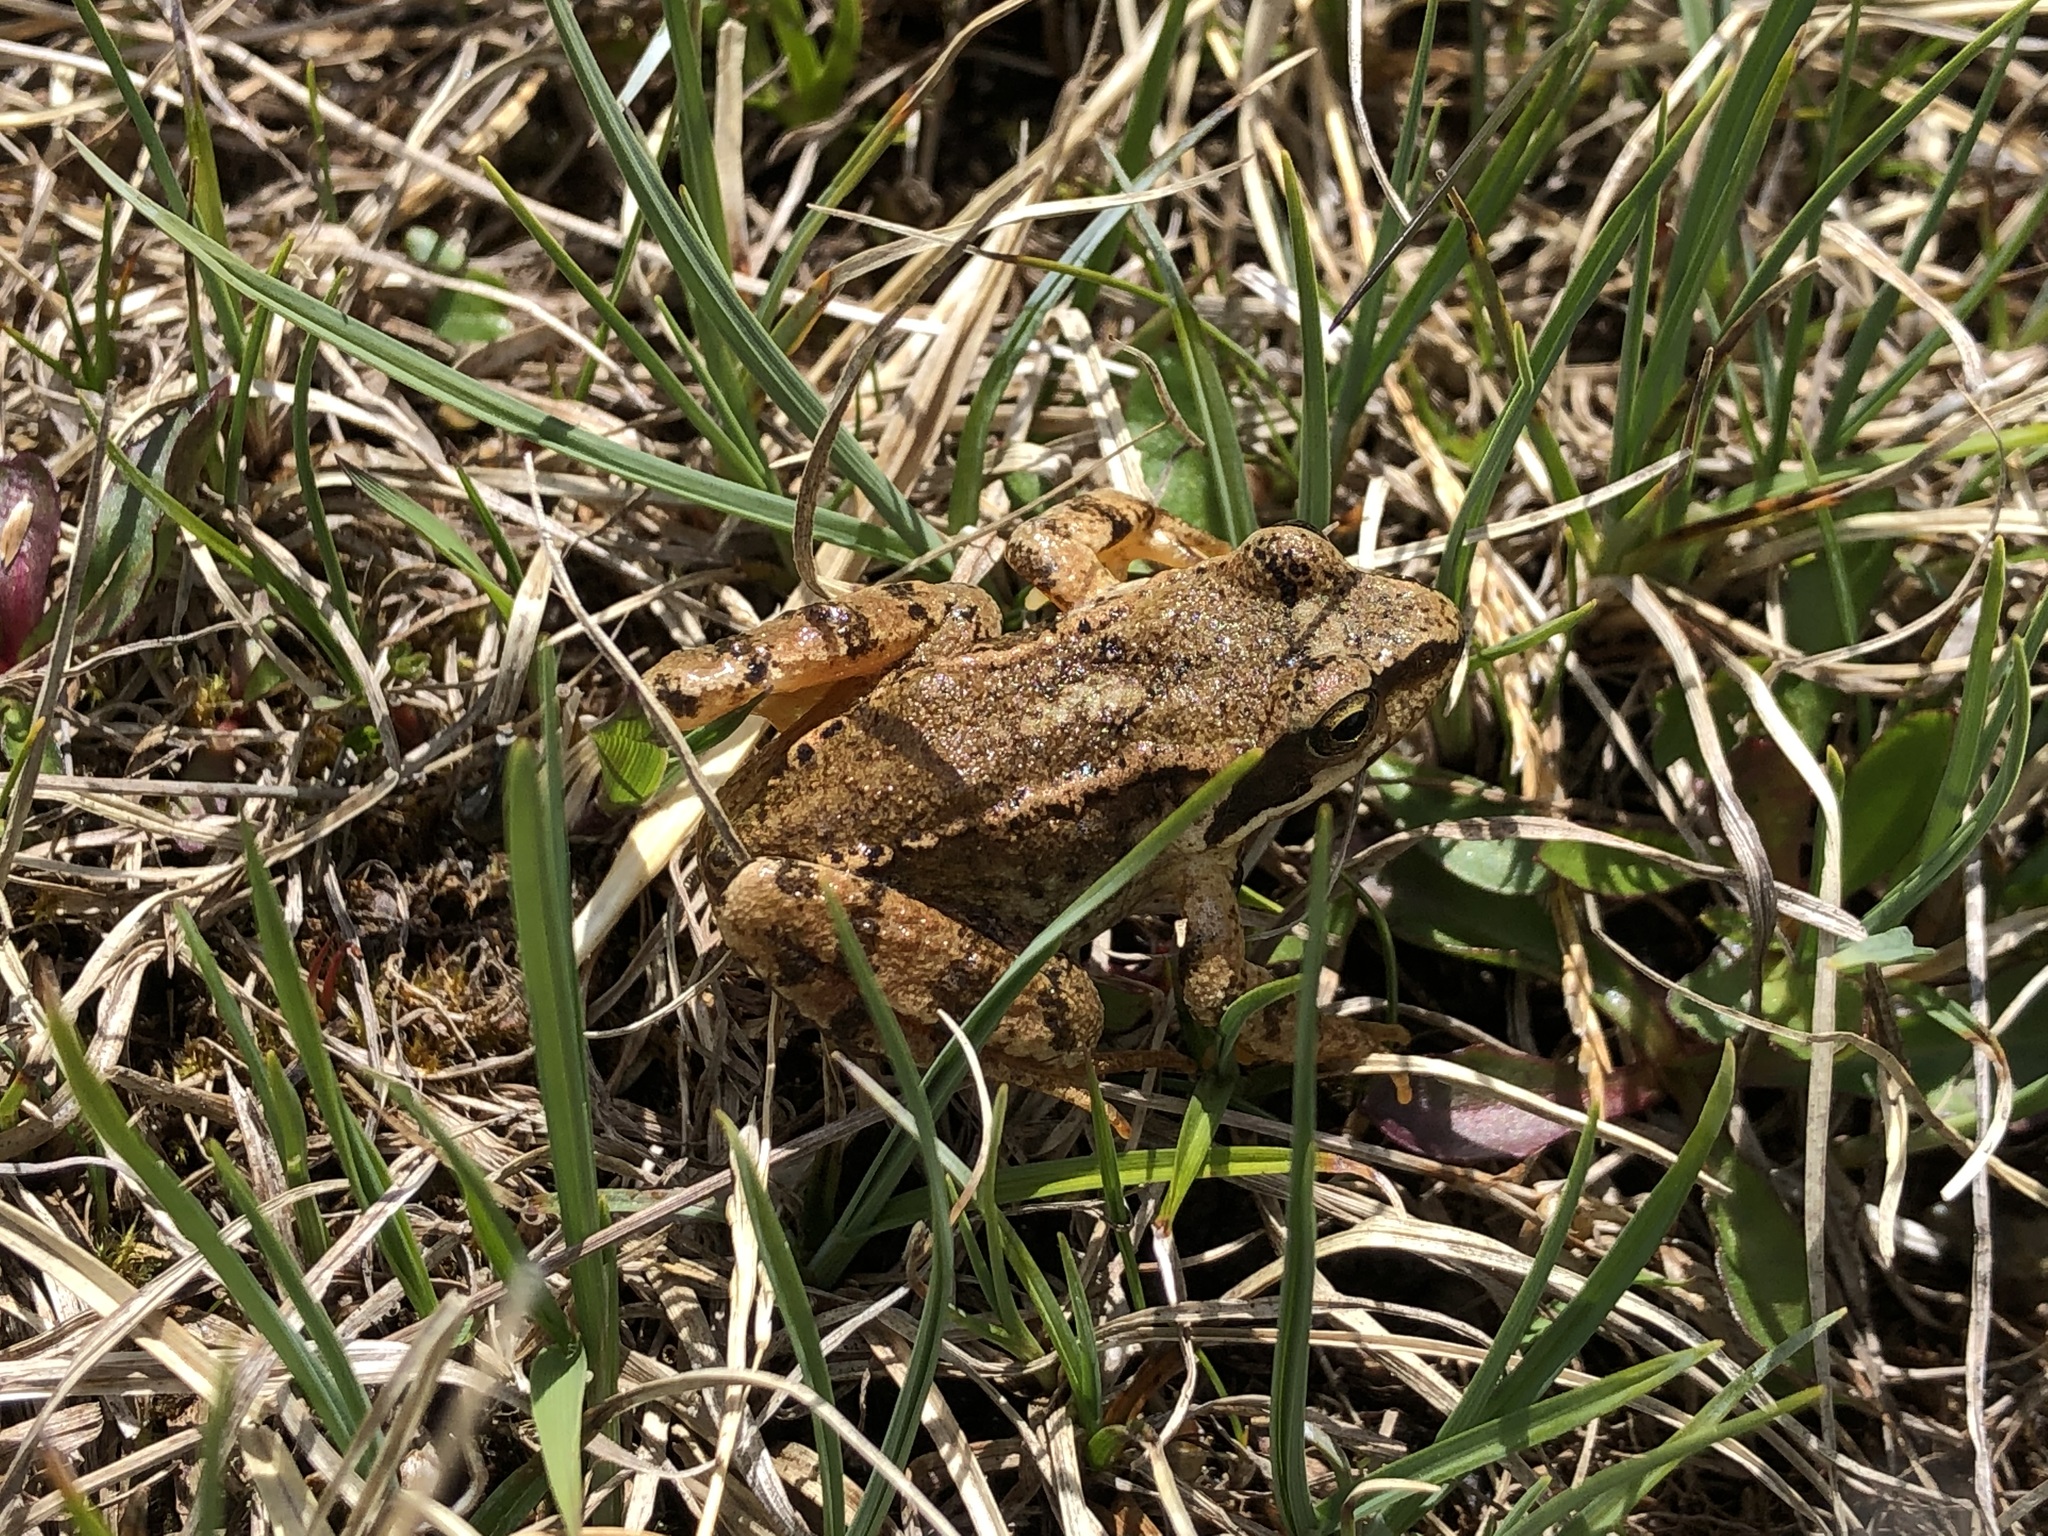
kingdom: Animalia
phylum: Chordata
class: Amphibia
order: Anura
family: Ranidae
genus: Rana
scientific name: Rana temporaria
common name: Common frog
